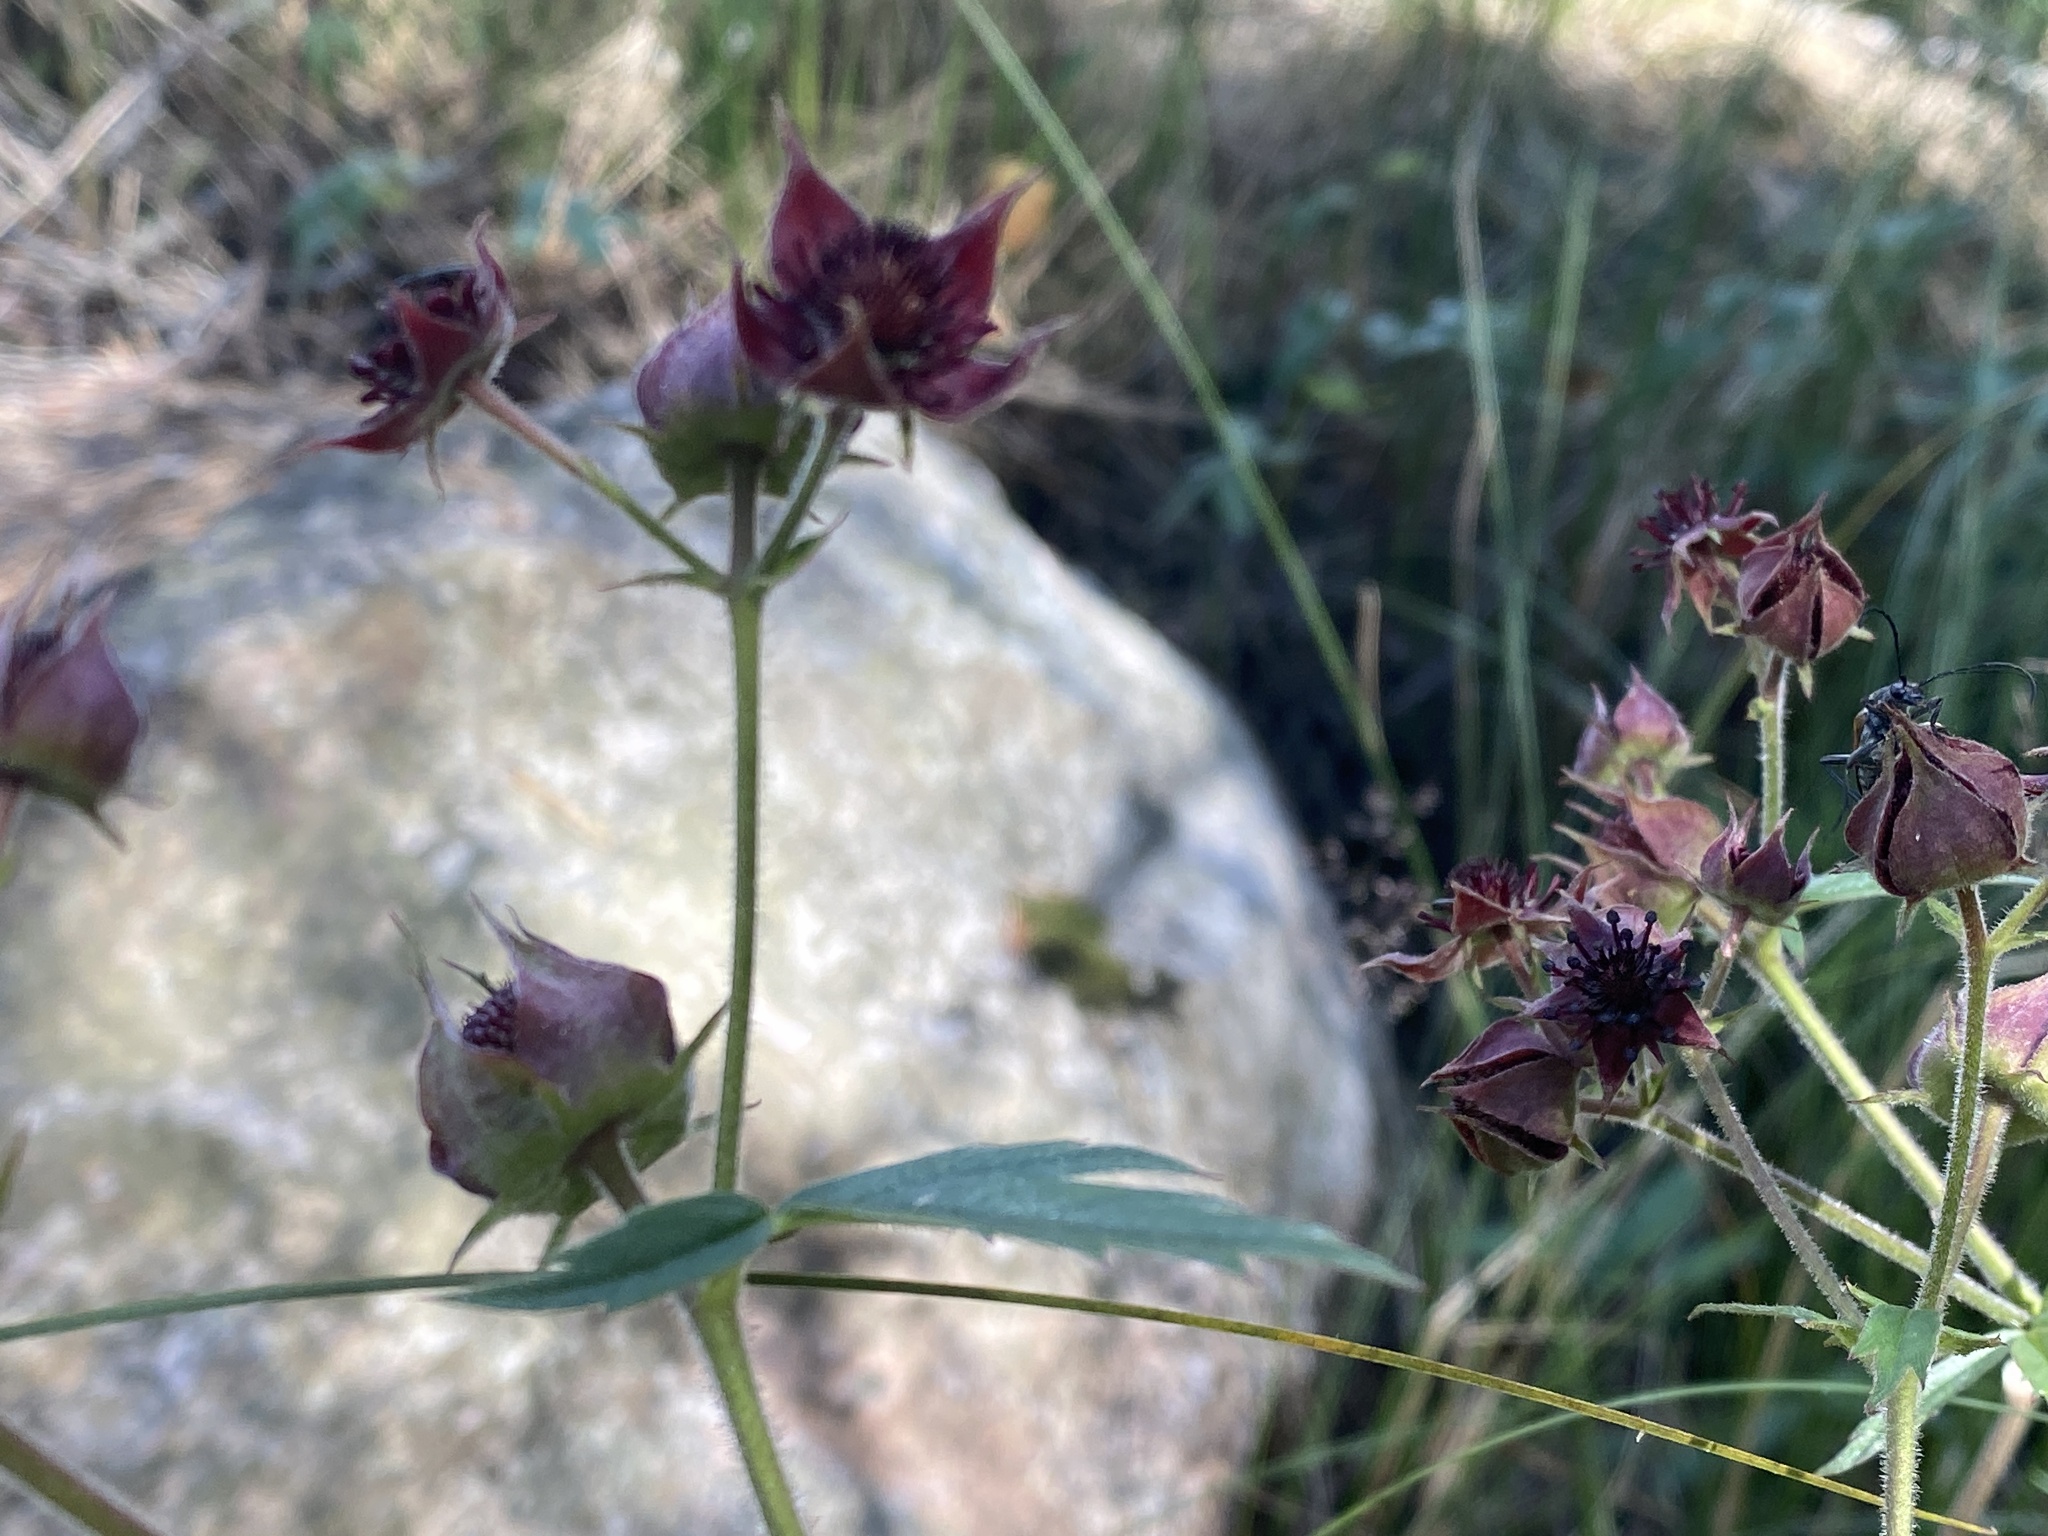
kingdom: Plantae
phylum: Tracheophyta
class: Magnoliopsida
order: Rosales
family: Rosaceae
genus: Comarum
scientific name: Comarum palustre
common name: Marsh cinquefoil
